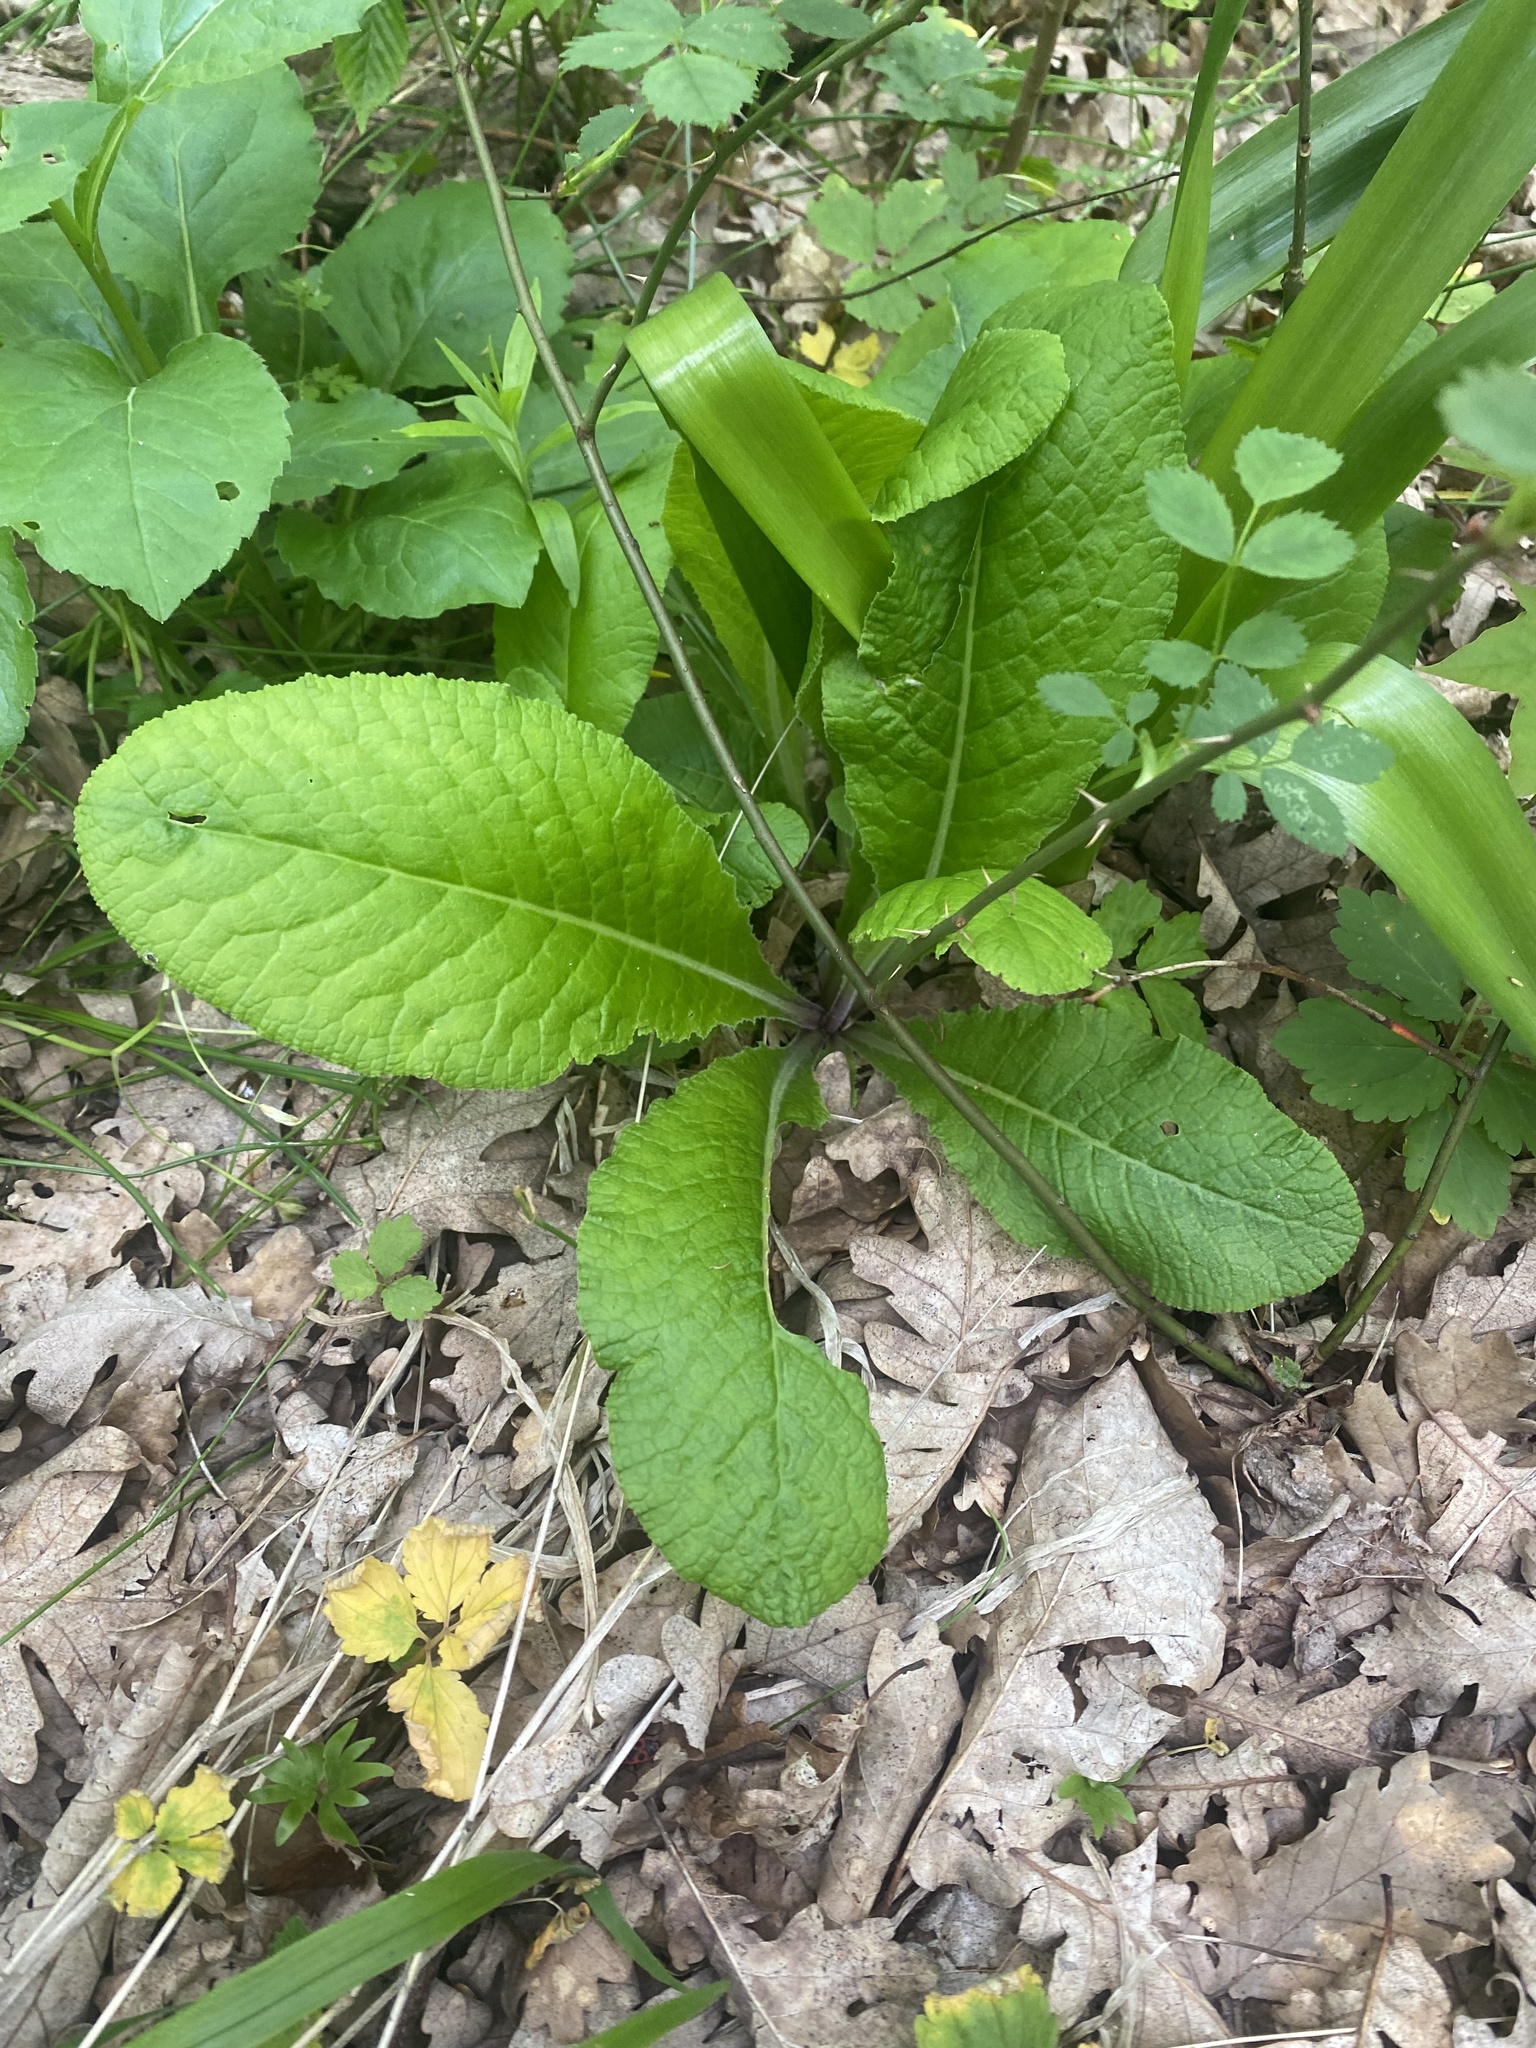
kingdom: Plantae
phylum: Tracheophyta
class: Magnoliopsida
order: Ericales
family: Primulaceae
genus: Primula
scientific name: Primula vulgaris
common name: Primrose
